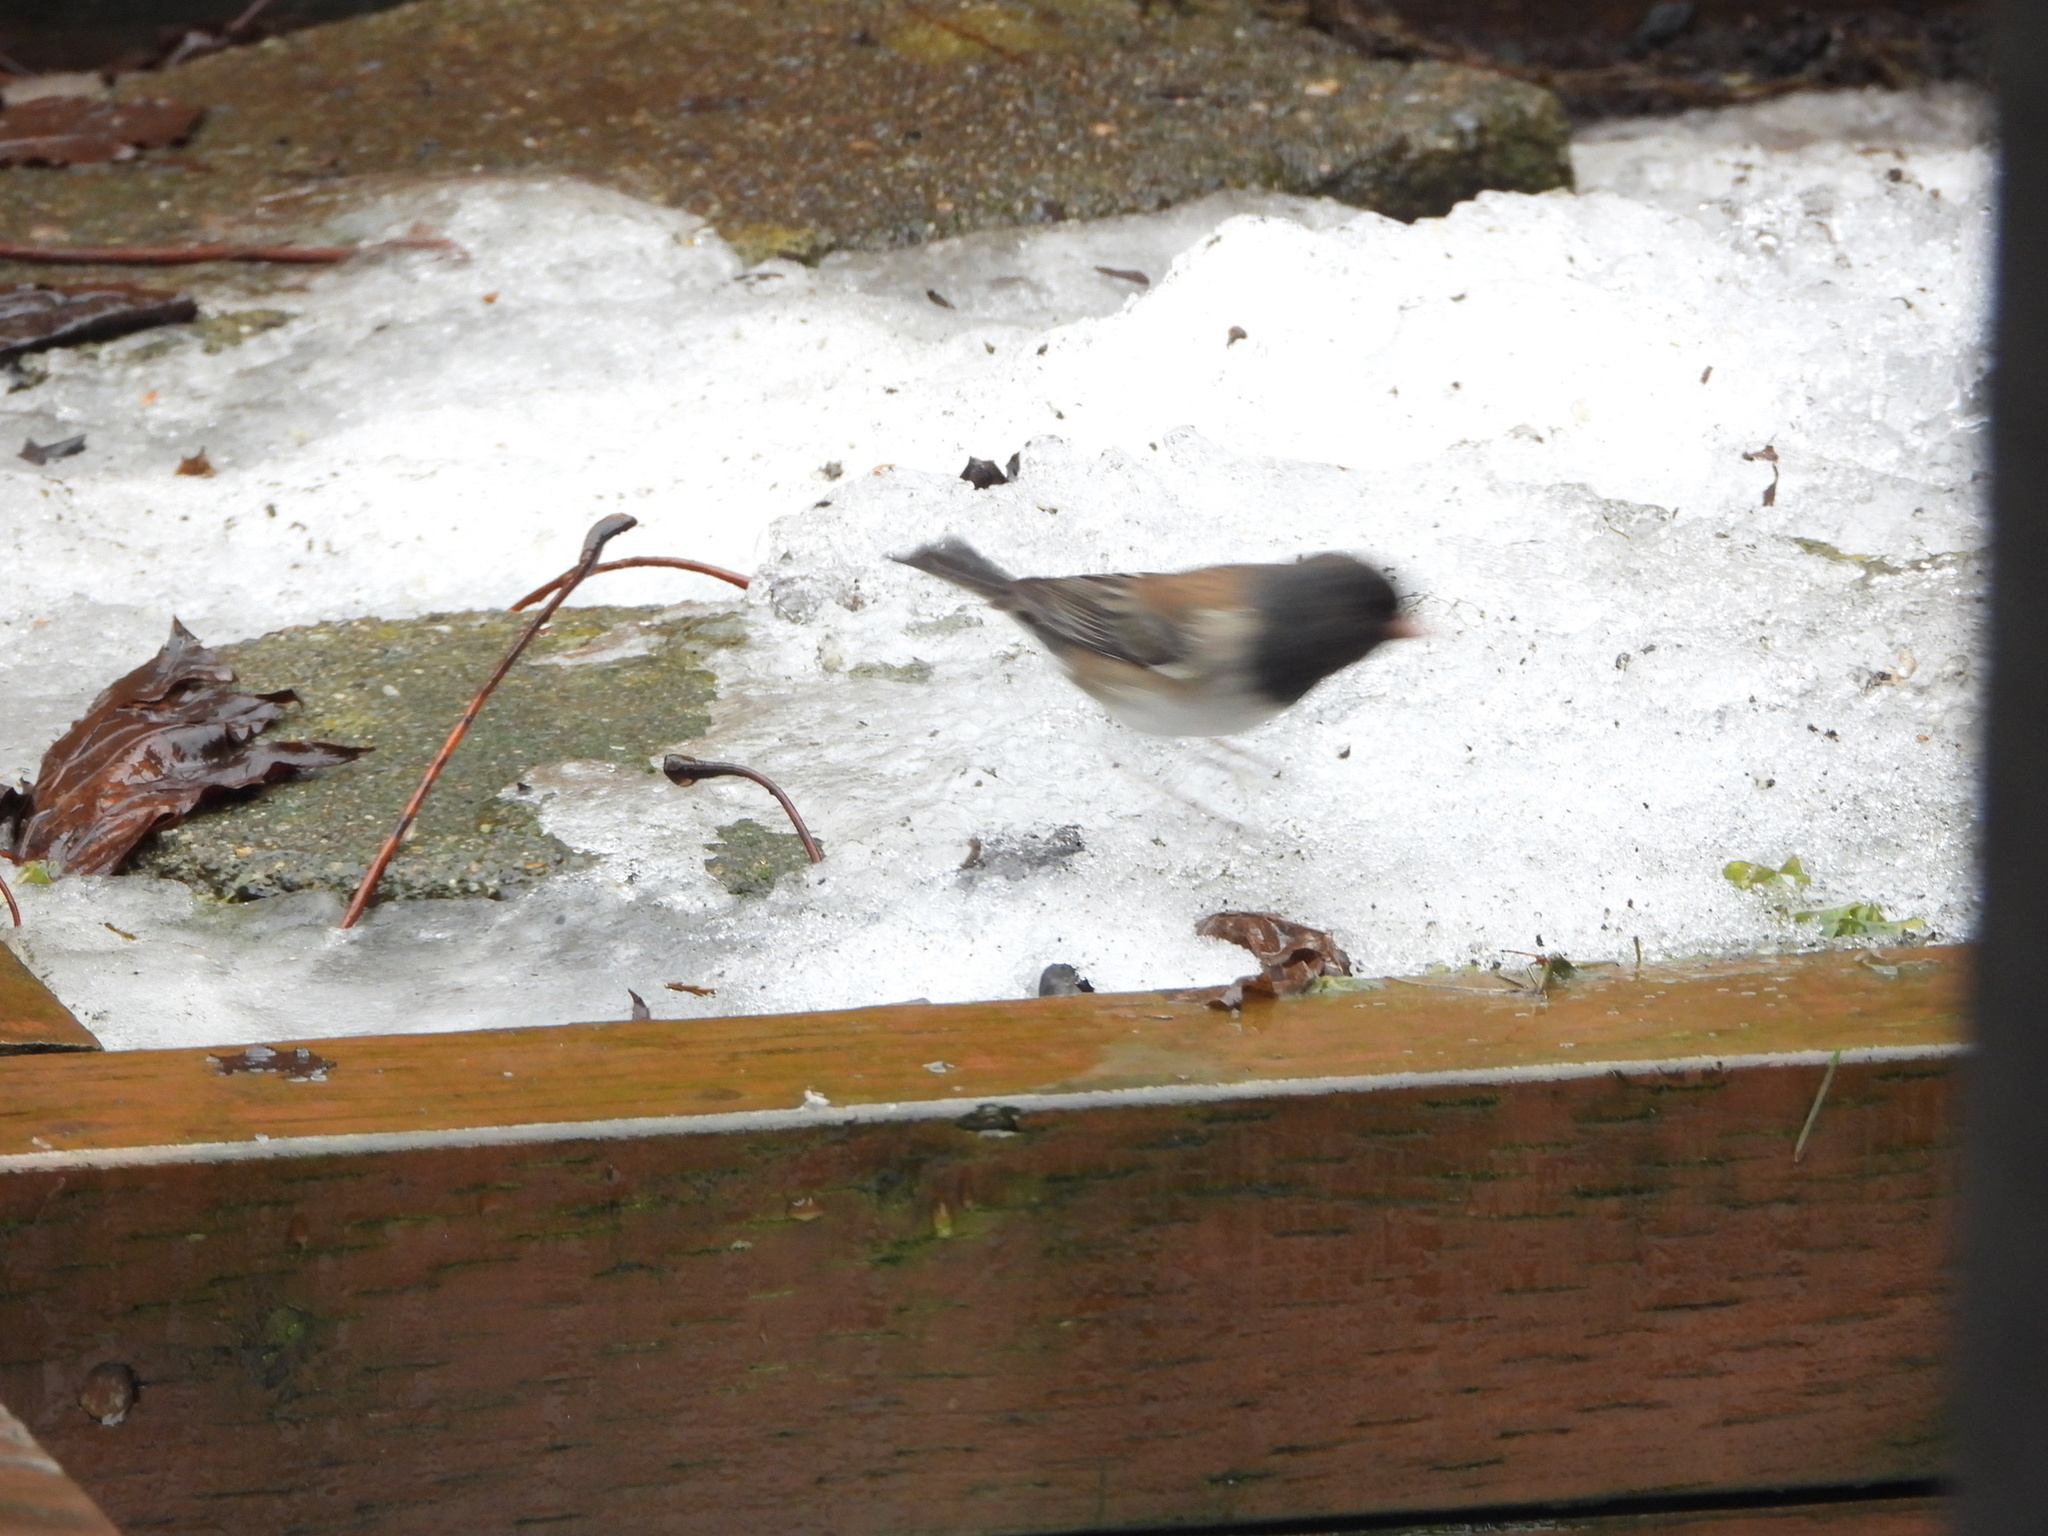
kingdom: Animalia
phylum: Chordata
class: Aves
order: Passeriformes
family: Passerellidae
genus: Junco
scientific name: Junco hyemalis
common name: Dark-eyed junco
